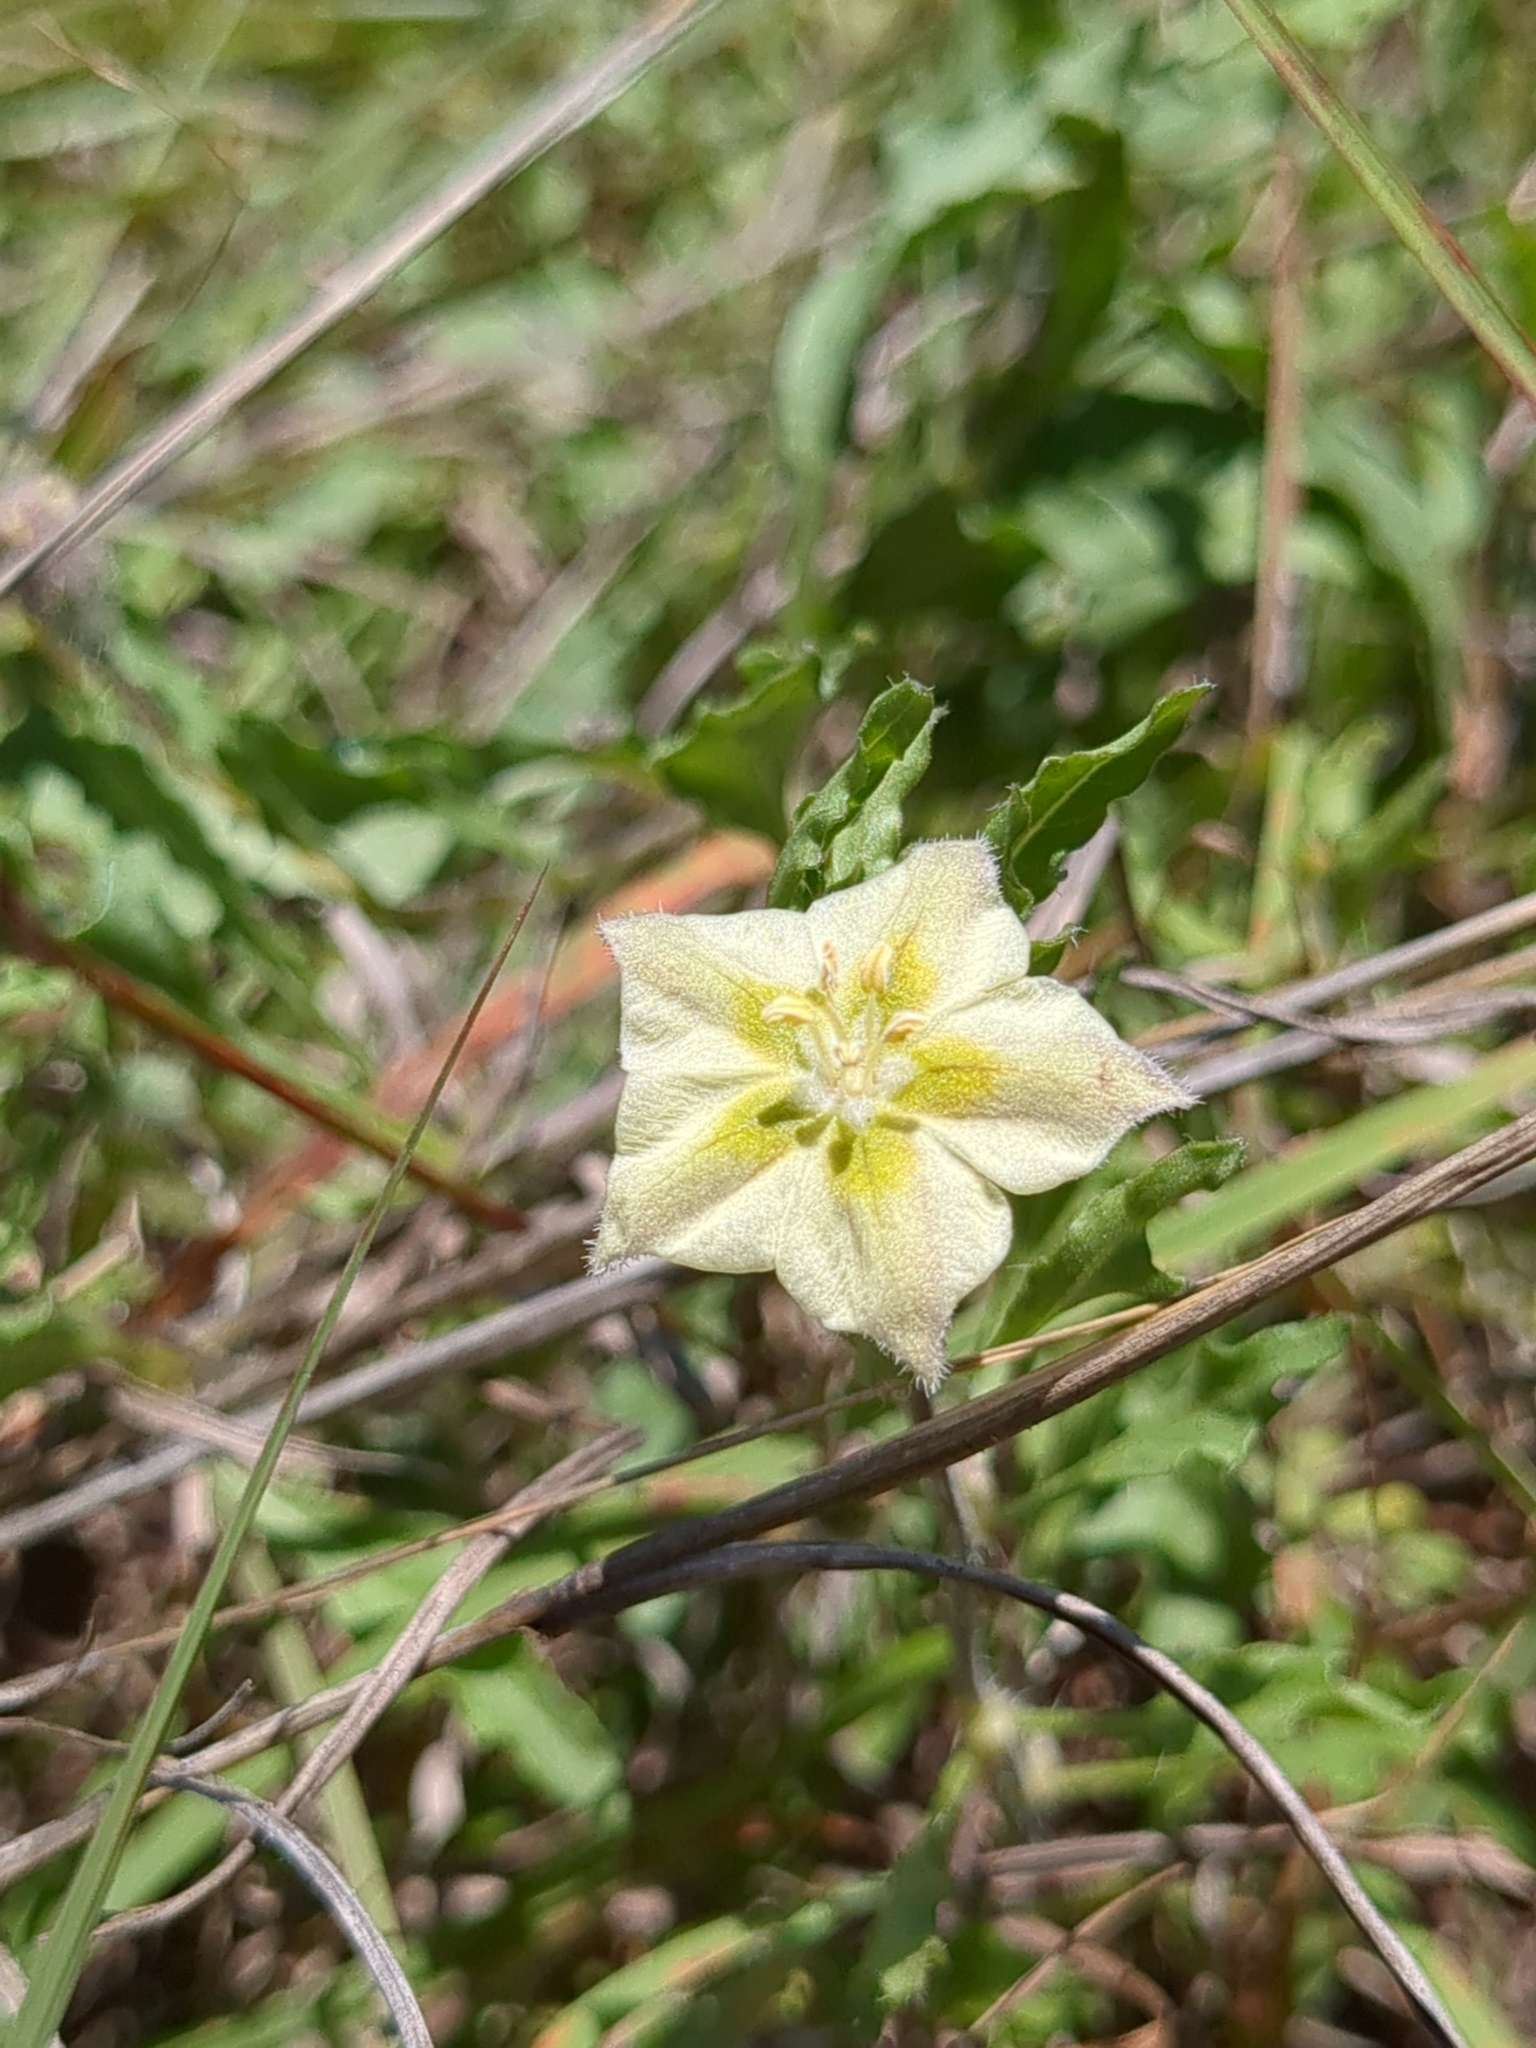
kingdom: Plantae
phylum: Tracheophyta
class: Magnoliopsida
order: Solanales
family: Solanaceae
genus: Chamaesaracha
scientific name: Chamaesaracha edwardsiana
